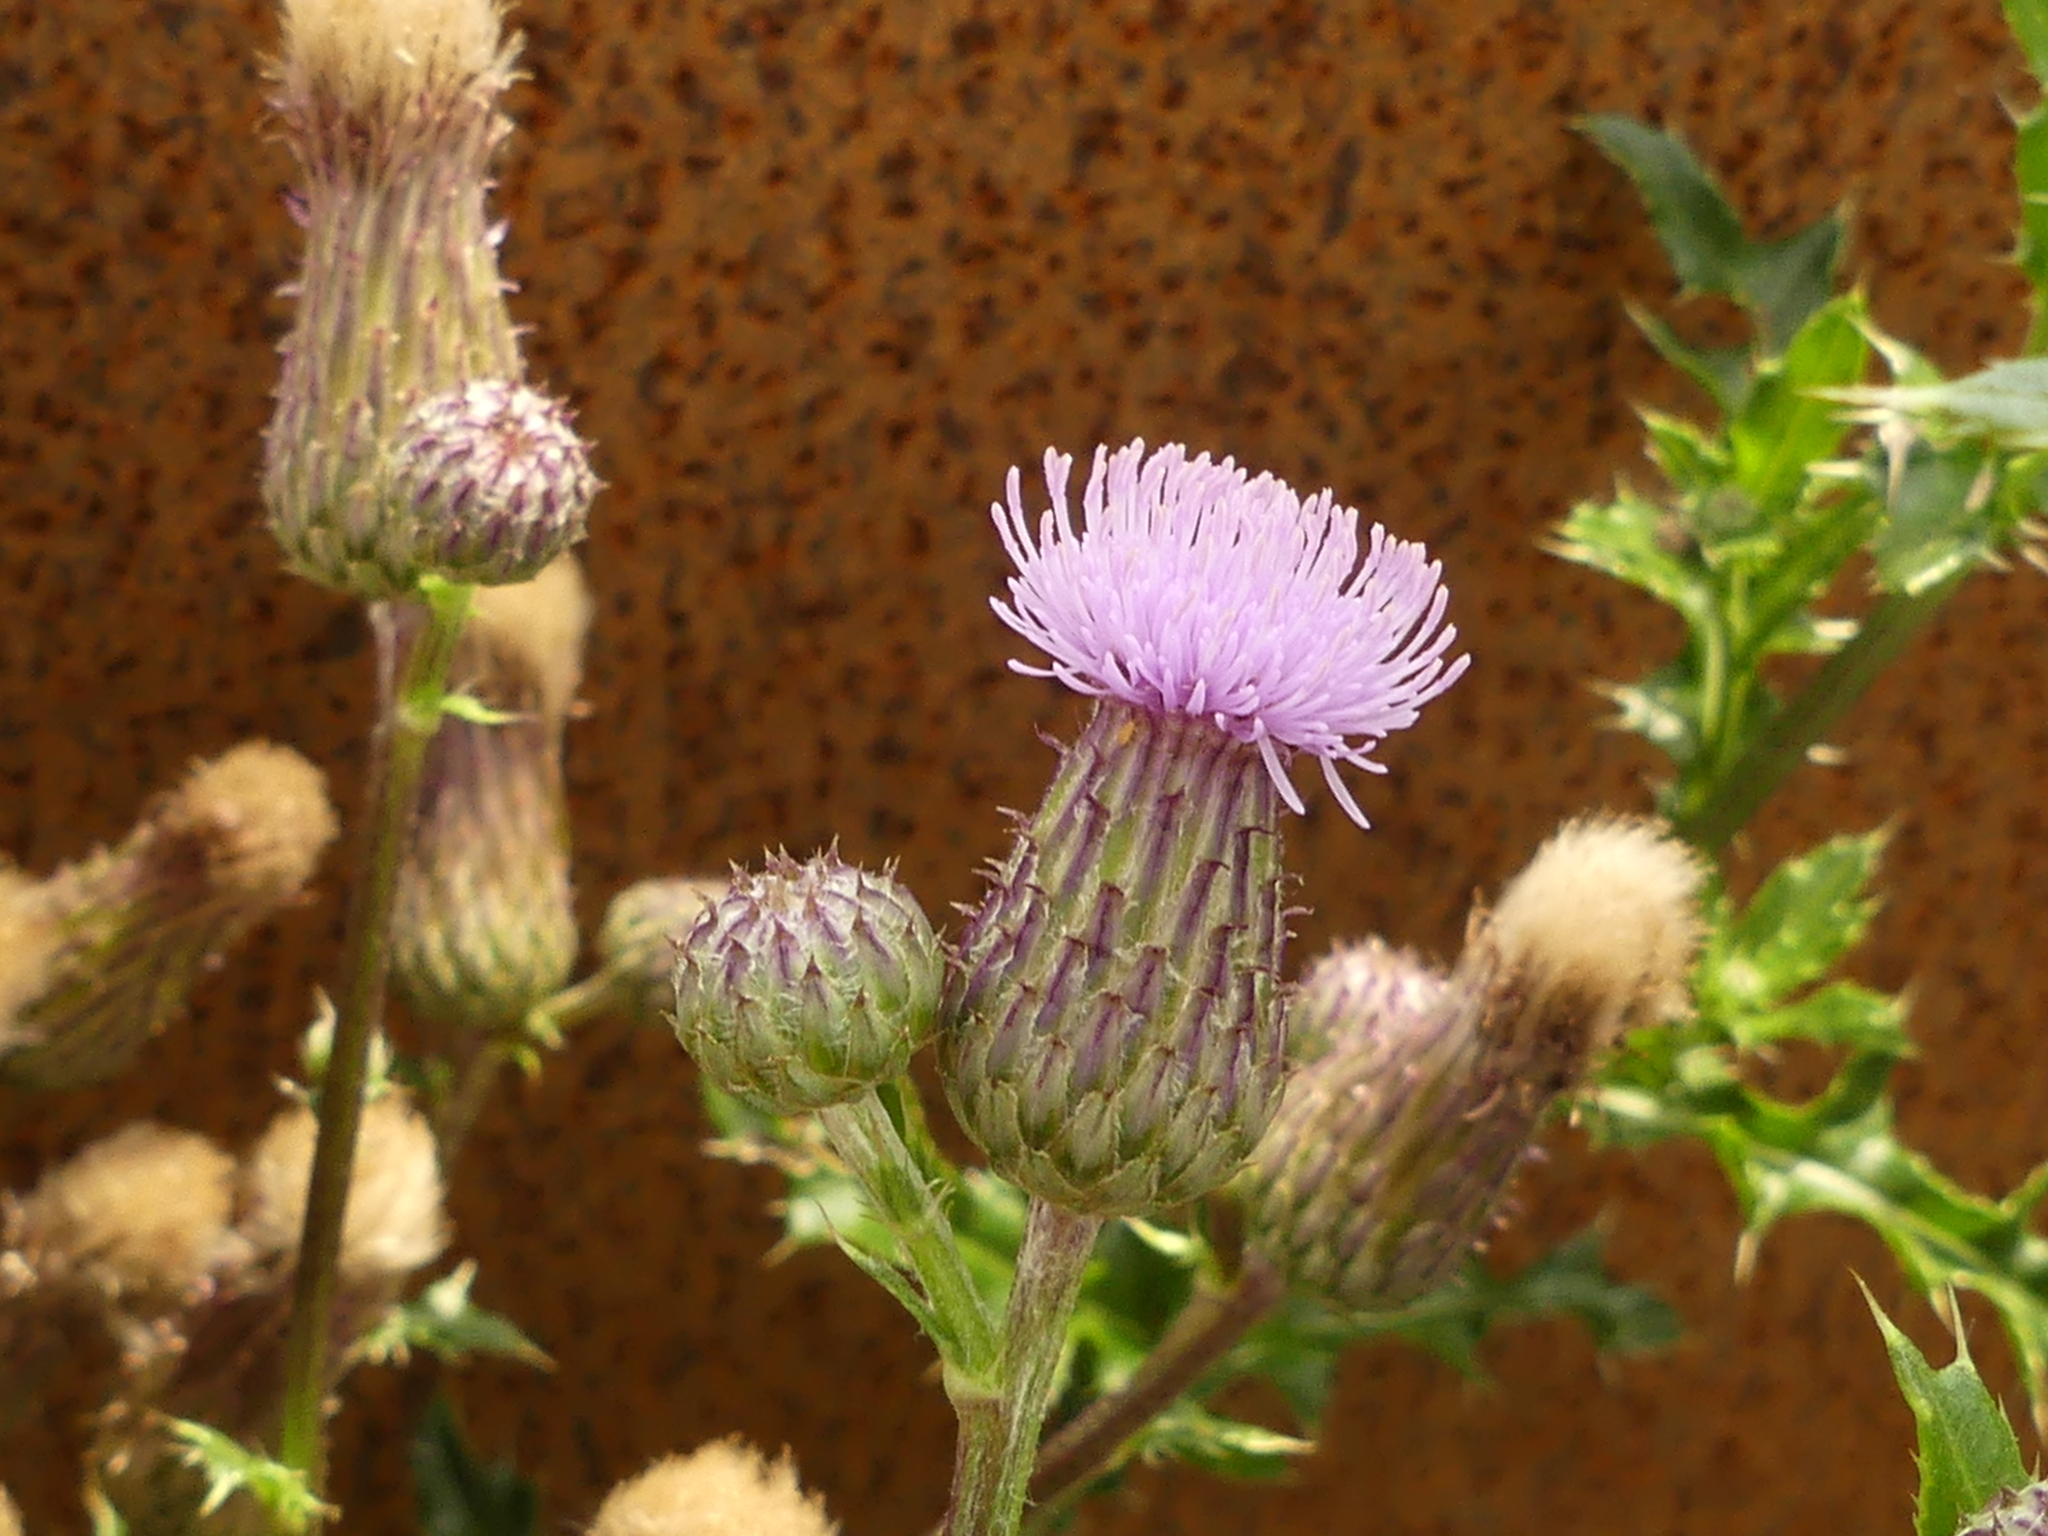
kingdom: Plantae
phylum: Tracheophyta
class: Magnoliopsida
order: Asterales
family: Asteraceae
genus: Cirsium
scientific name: Cirsium arvense
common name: Creeping thistle
